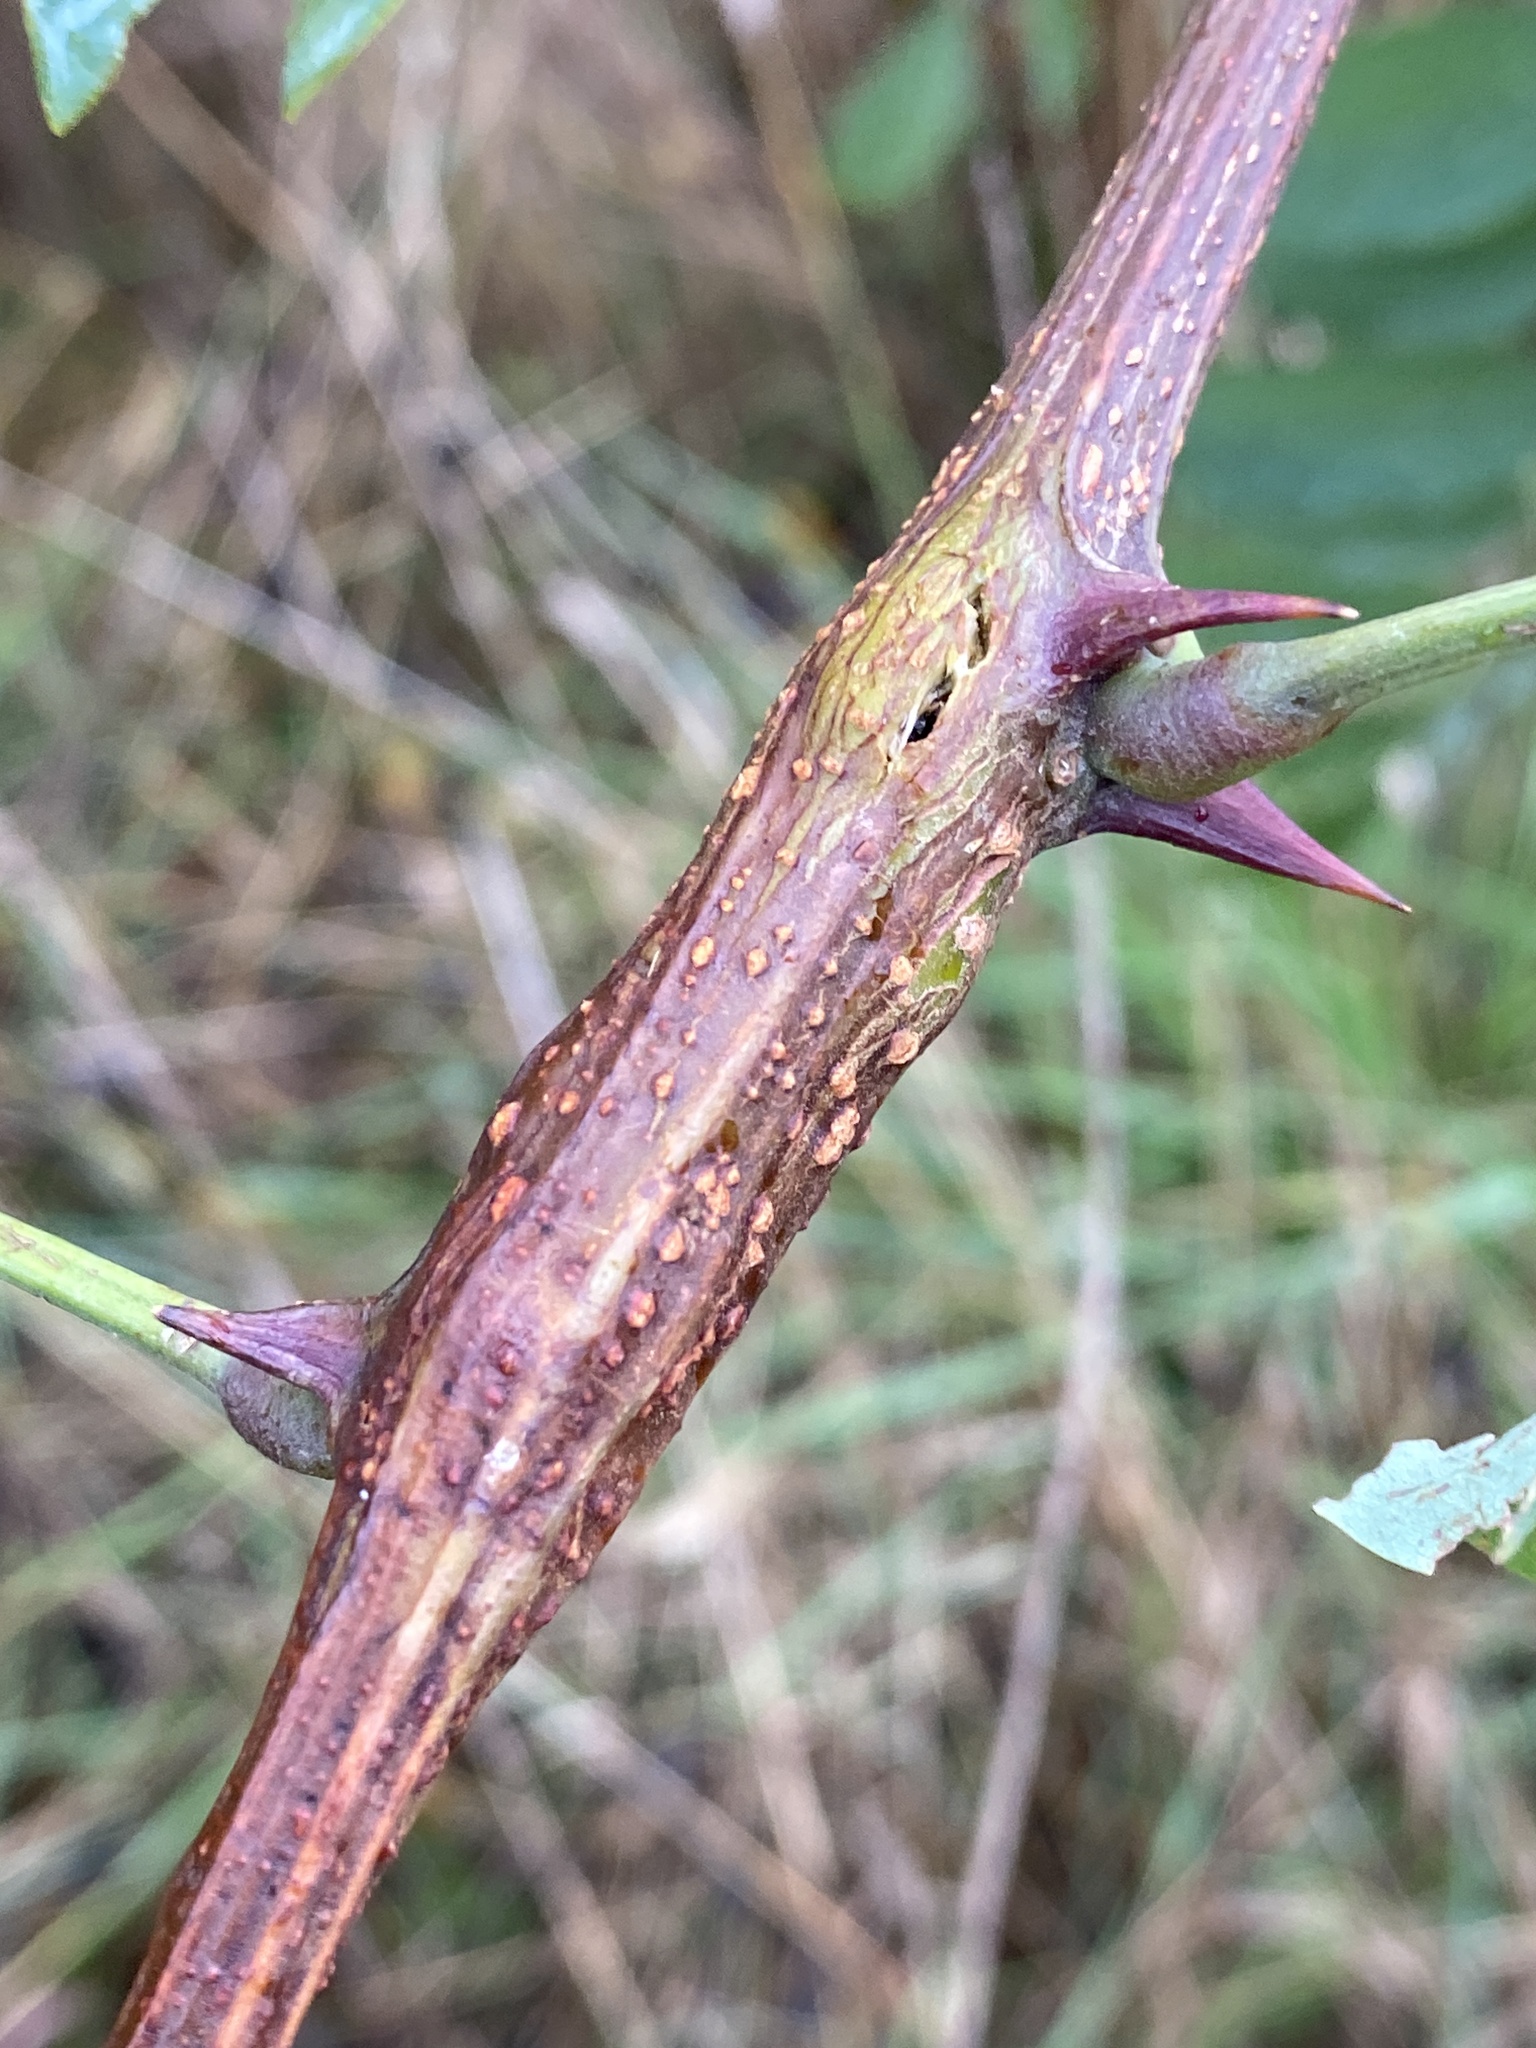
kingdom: Animalia
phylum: Arthropoda
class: Insecta
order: Lepidoptera
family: Tortricidae
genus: Ecdytolopha
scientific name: Ecdytolopha insiticiana
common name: Locust twig borer moth
